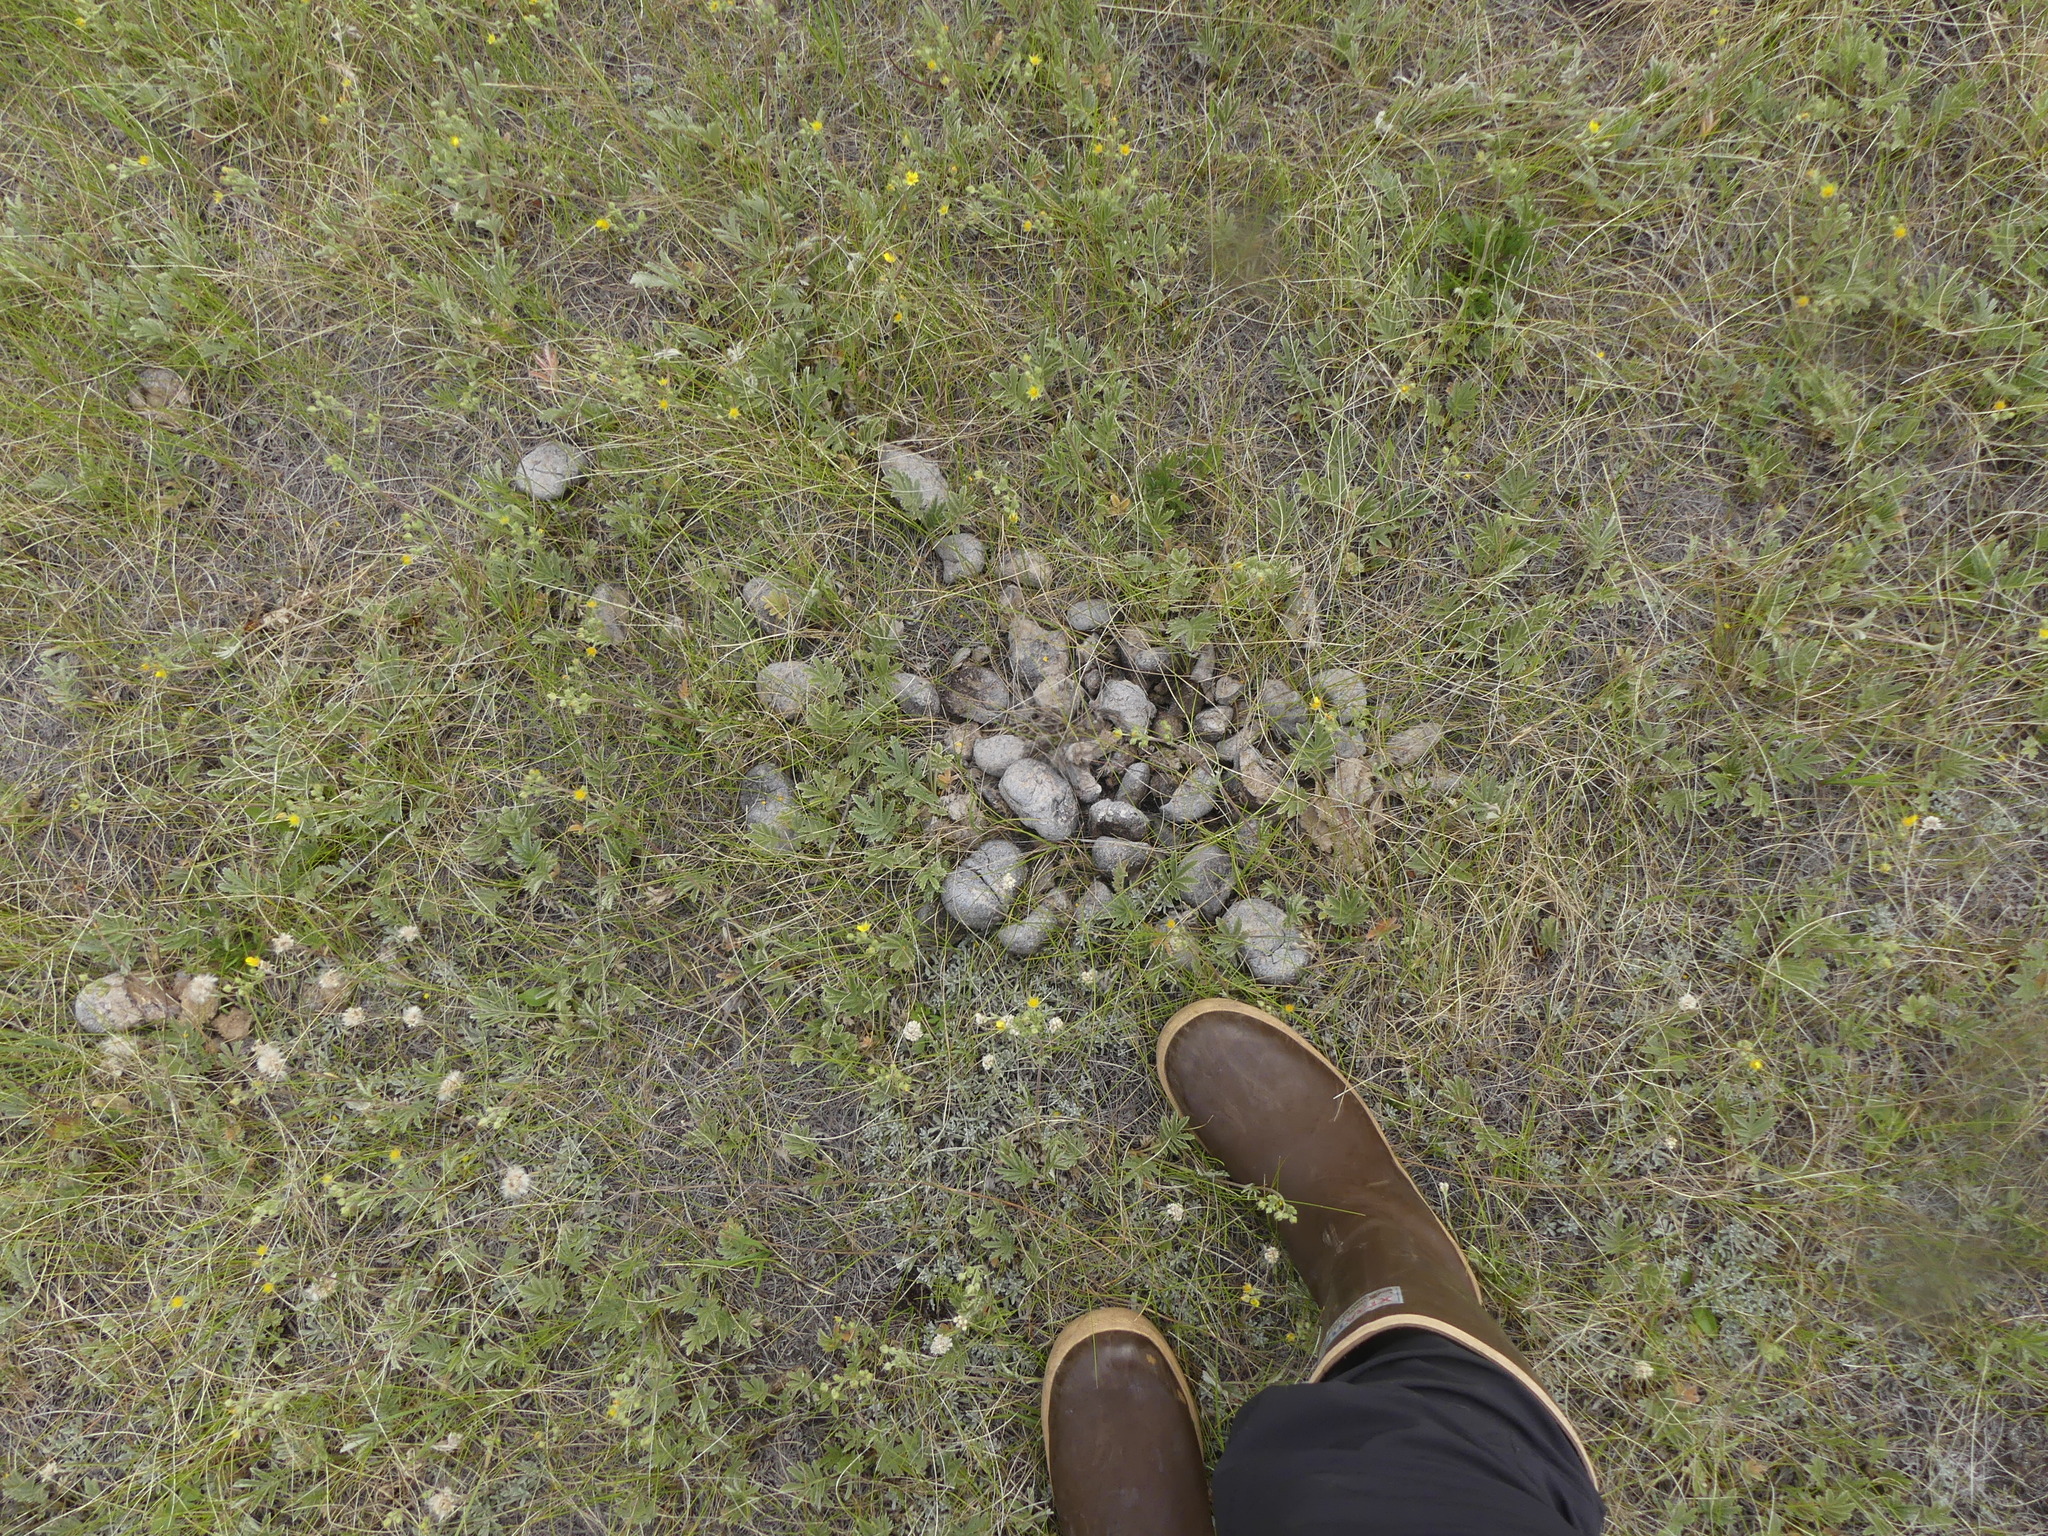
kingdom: Animalia
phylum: Chordata
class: Mammalia
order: Perissodactyla
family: Equidae
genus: Equus
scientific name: Equus caballus
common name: Horse
